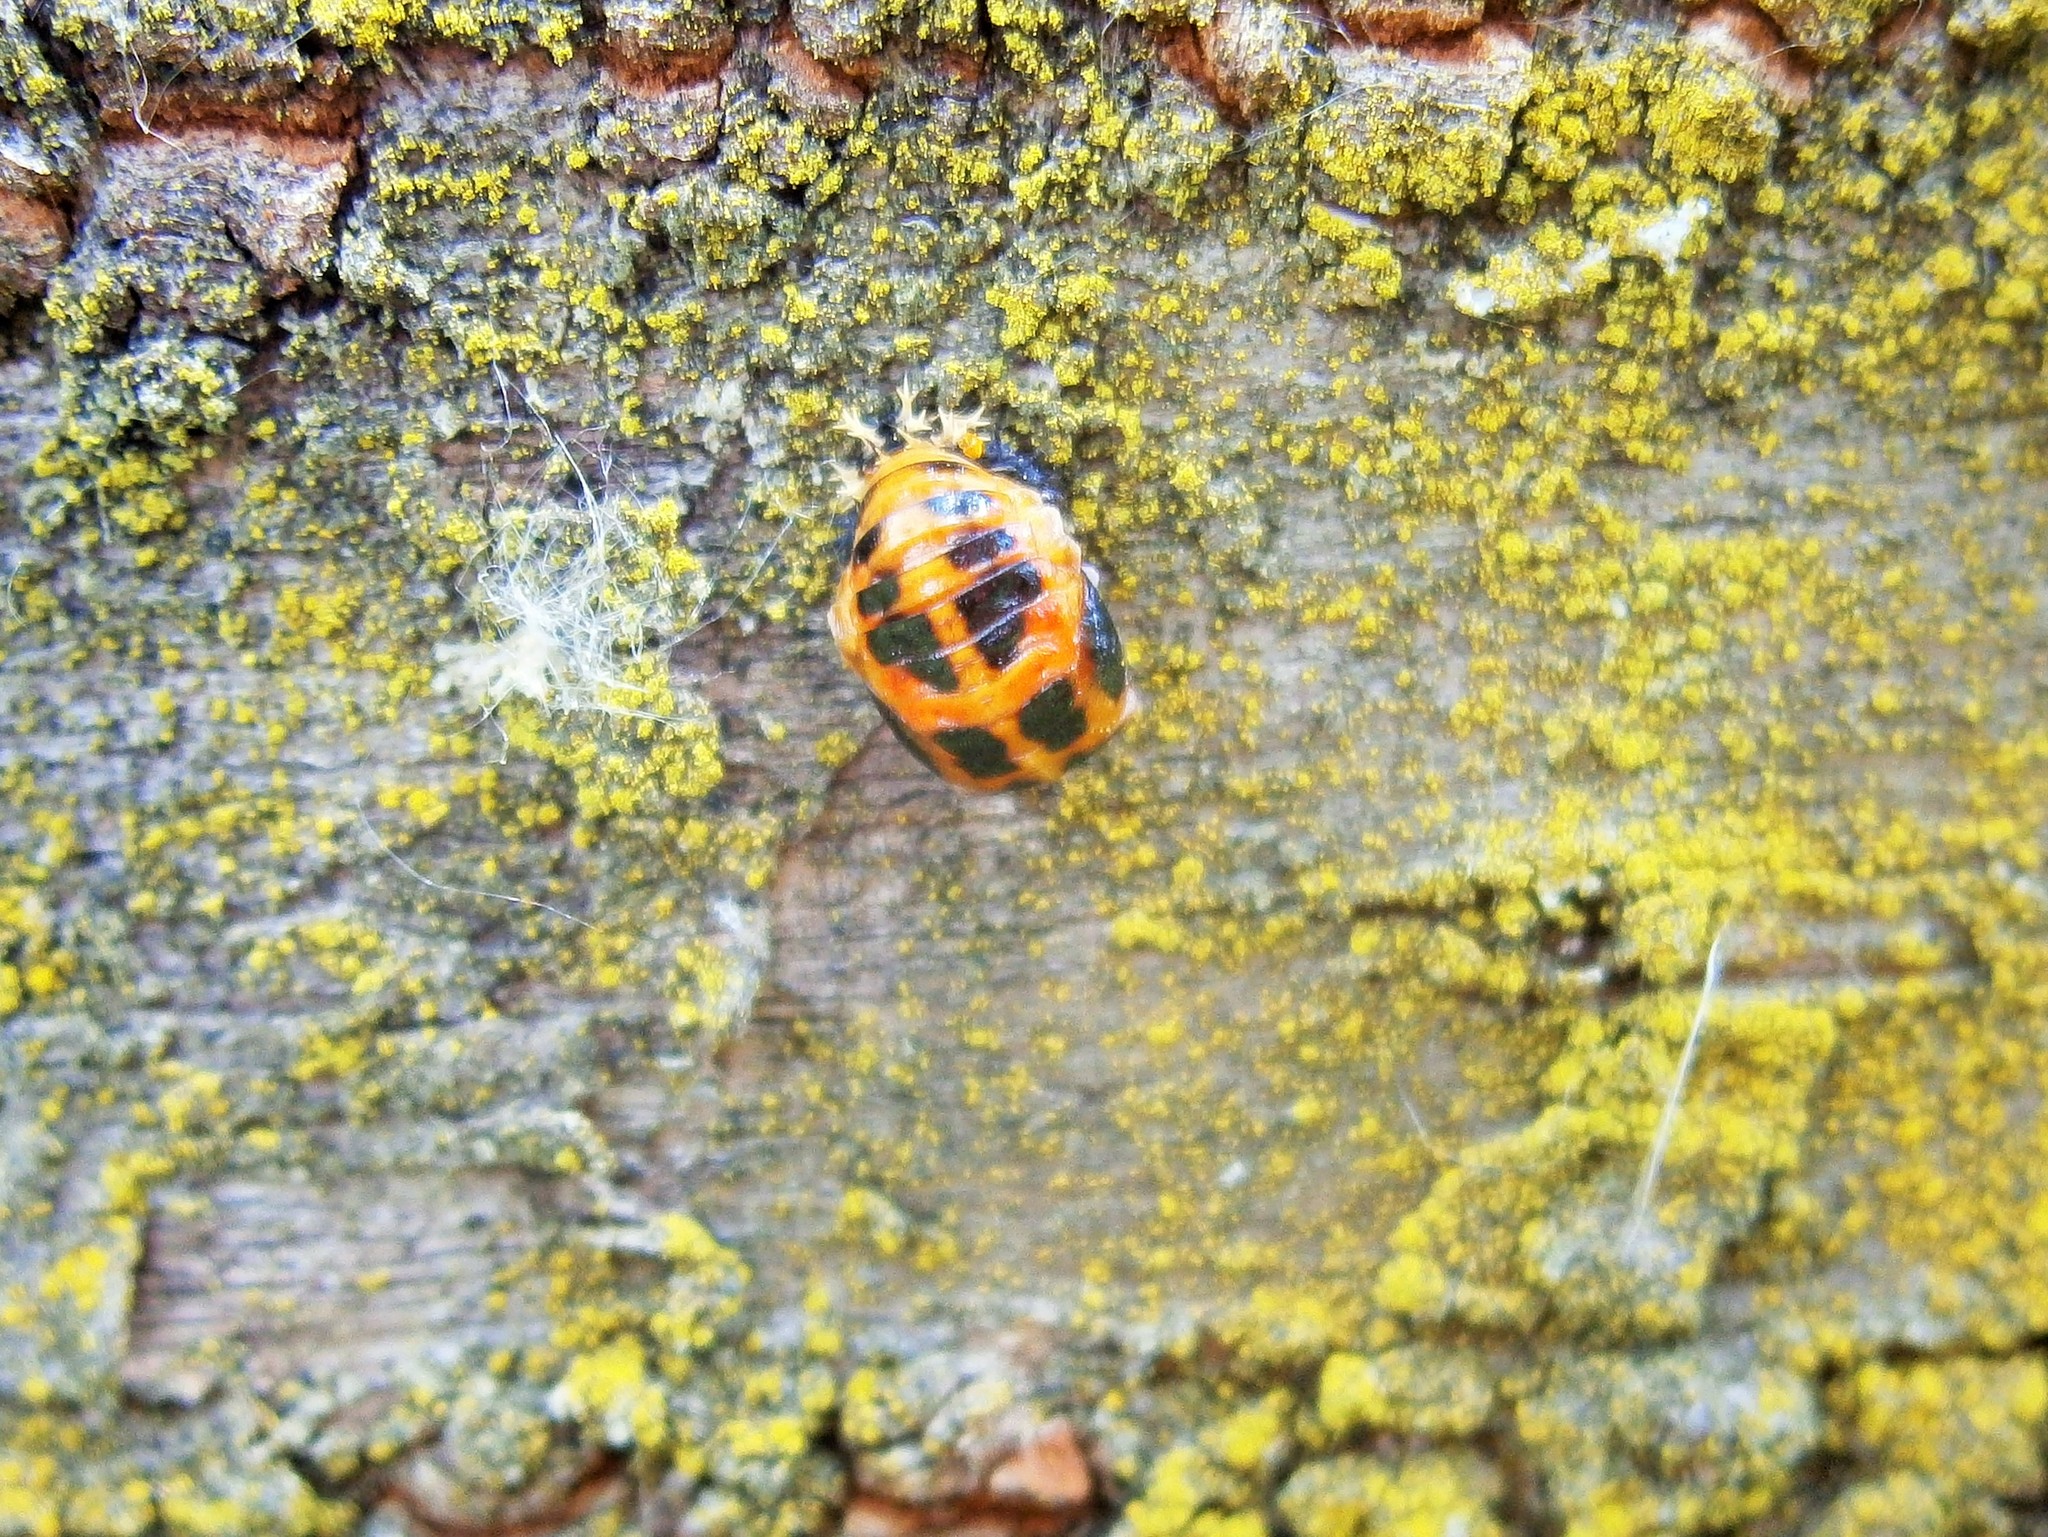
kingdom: Animalia
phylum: Arthropoda
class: Insecta
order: Coleoptera
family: Coccinellidae
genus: Harmonia
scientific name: Harmonia axyridis
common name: Harlequin ladybird
